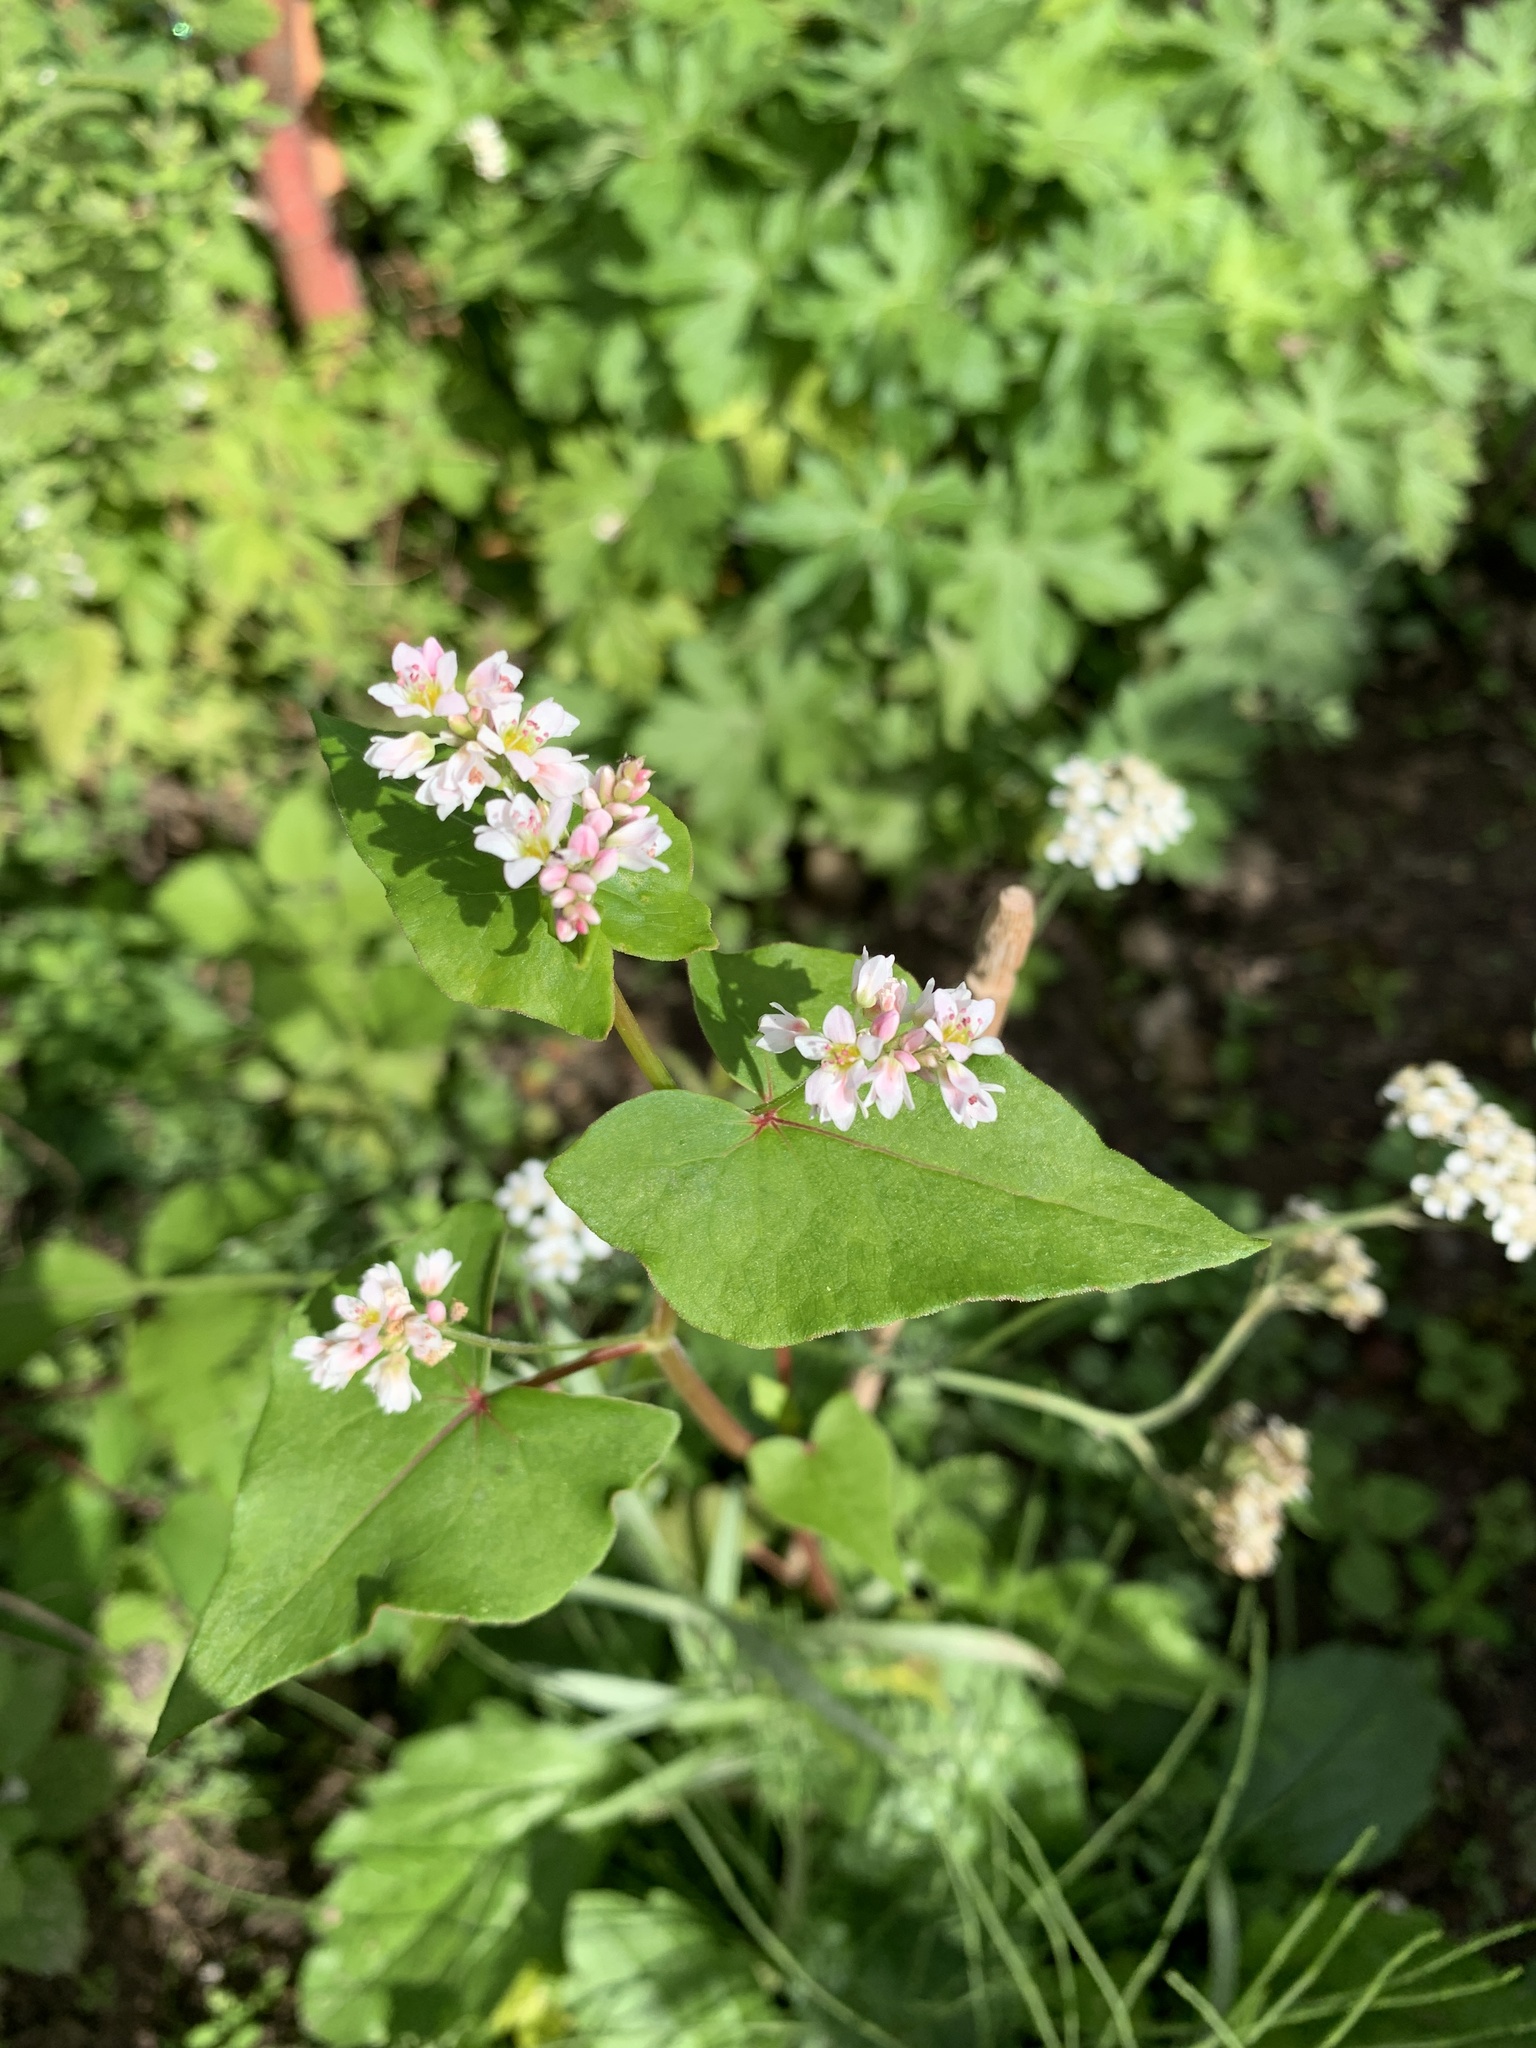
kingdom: Plantae
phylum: Tracheophyta
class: Magnoliopsida
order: Caryophyllales
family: Polygonaceae
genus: Fagopyrum
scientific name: Fagopyrum esculentum
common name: Buckwheat
